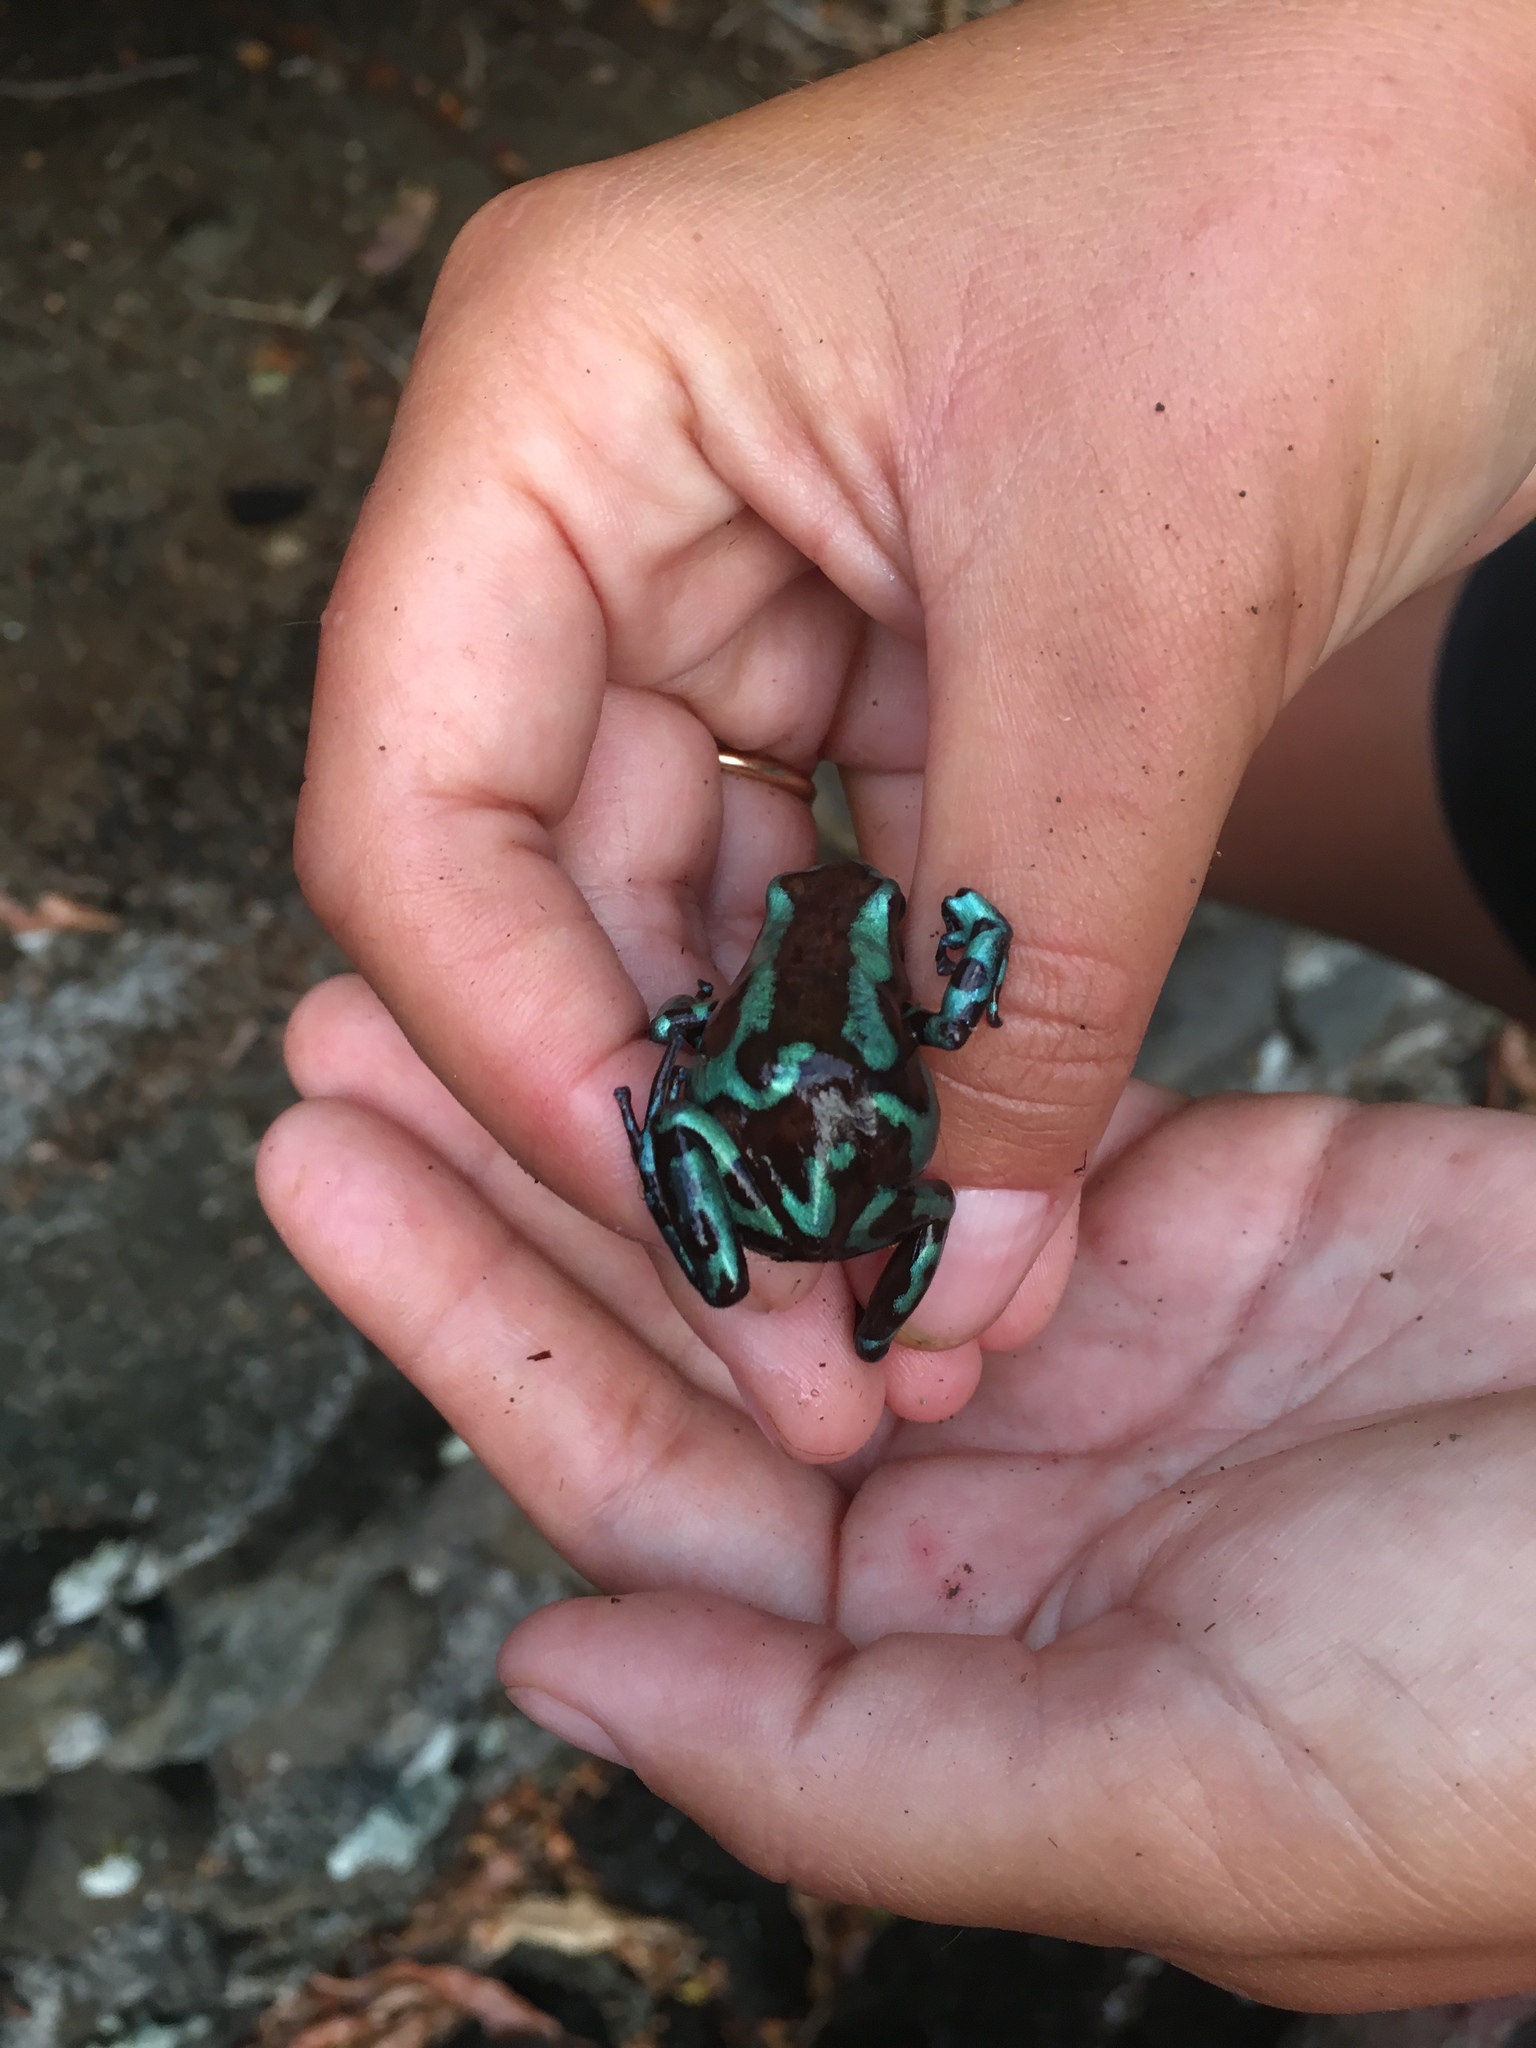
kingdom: Animalia
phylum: Chordata
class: Amphibia
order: Anura
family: Dendrobatidae
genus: Dendrobates
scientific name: Dendrobates auratus
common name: Green and black poison dart frog
